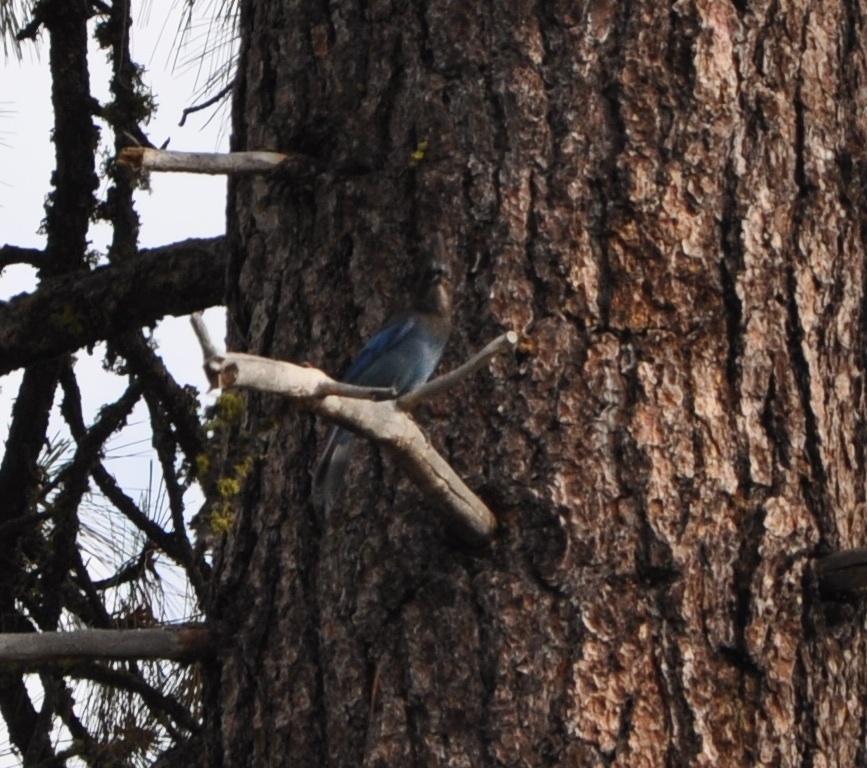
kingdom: Animalia
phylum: Chordata
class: Aves
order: Passeriformes
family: Corvidae
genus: Cyanocitta
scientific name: Cyanocitta stelleri
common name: Steller's jay
